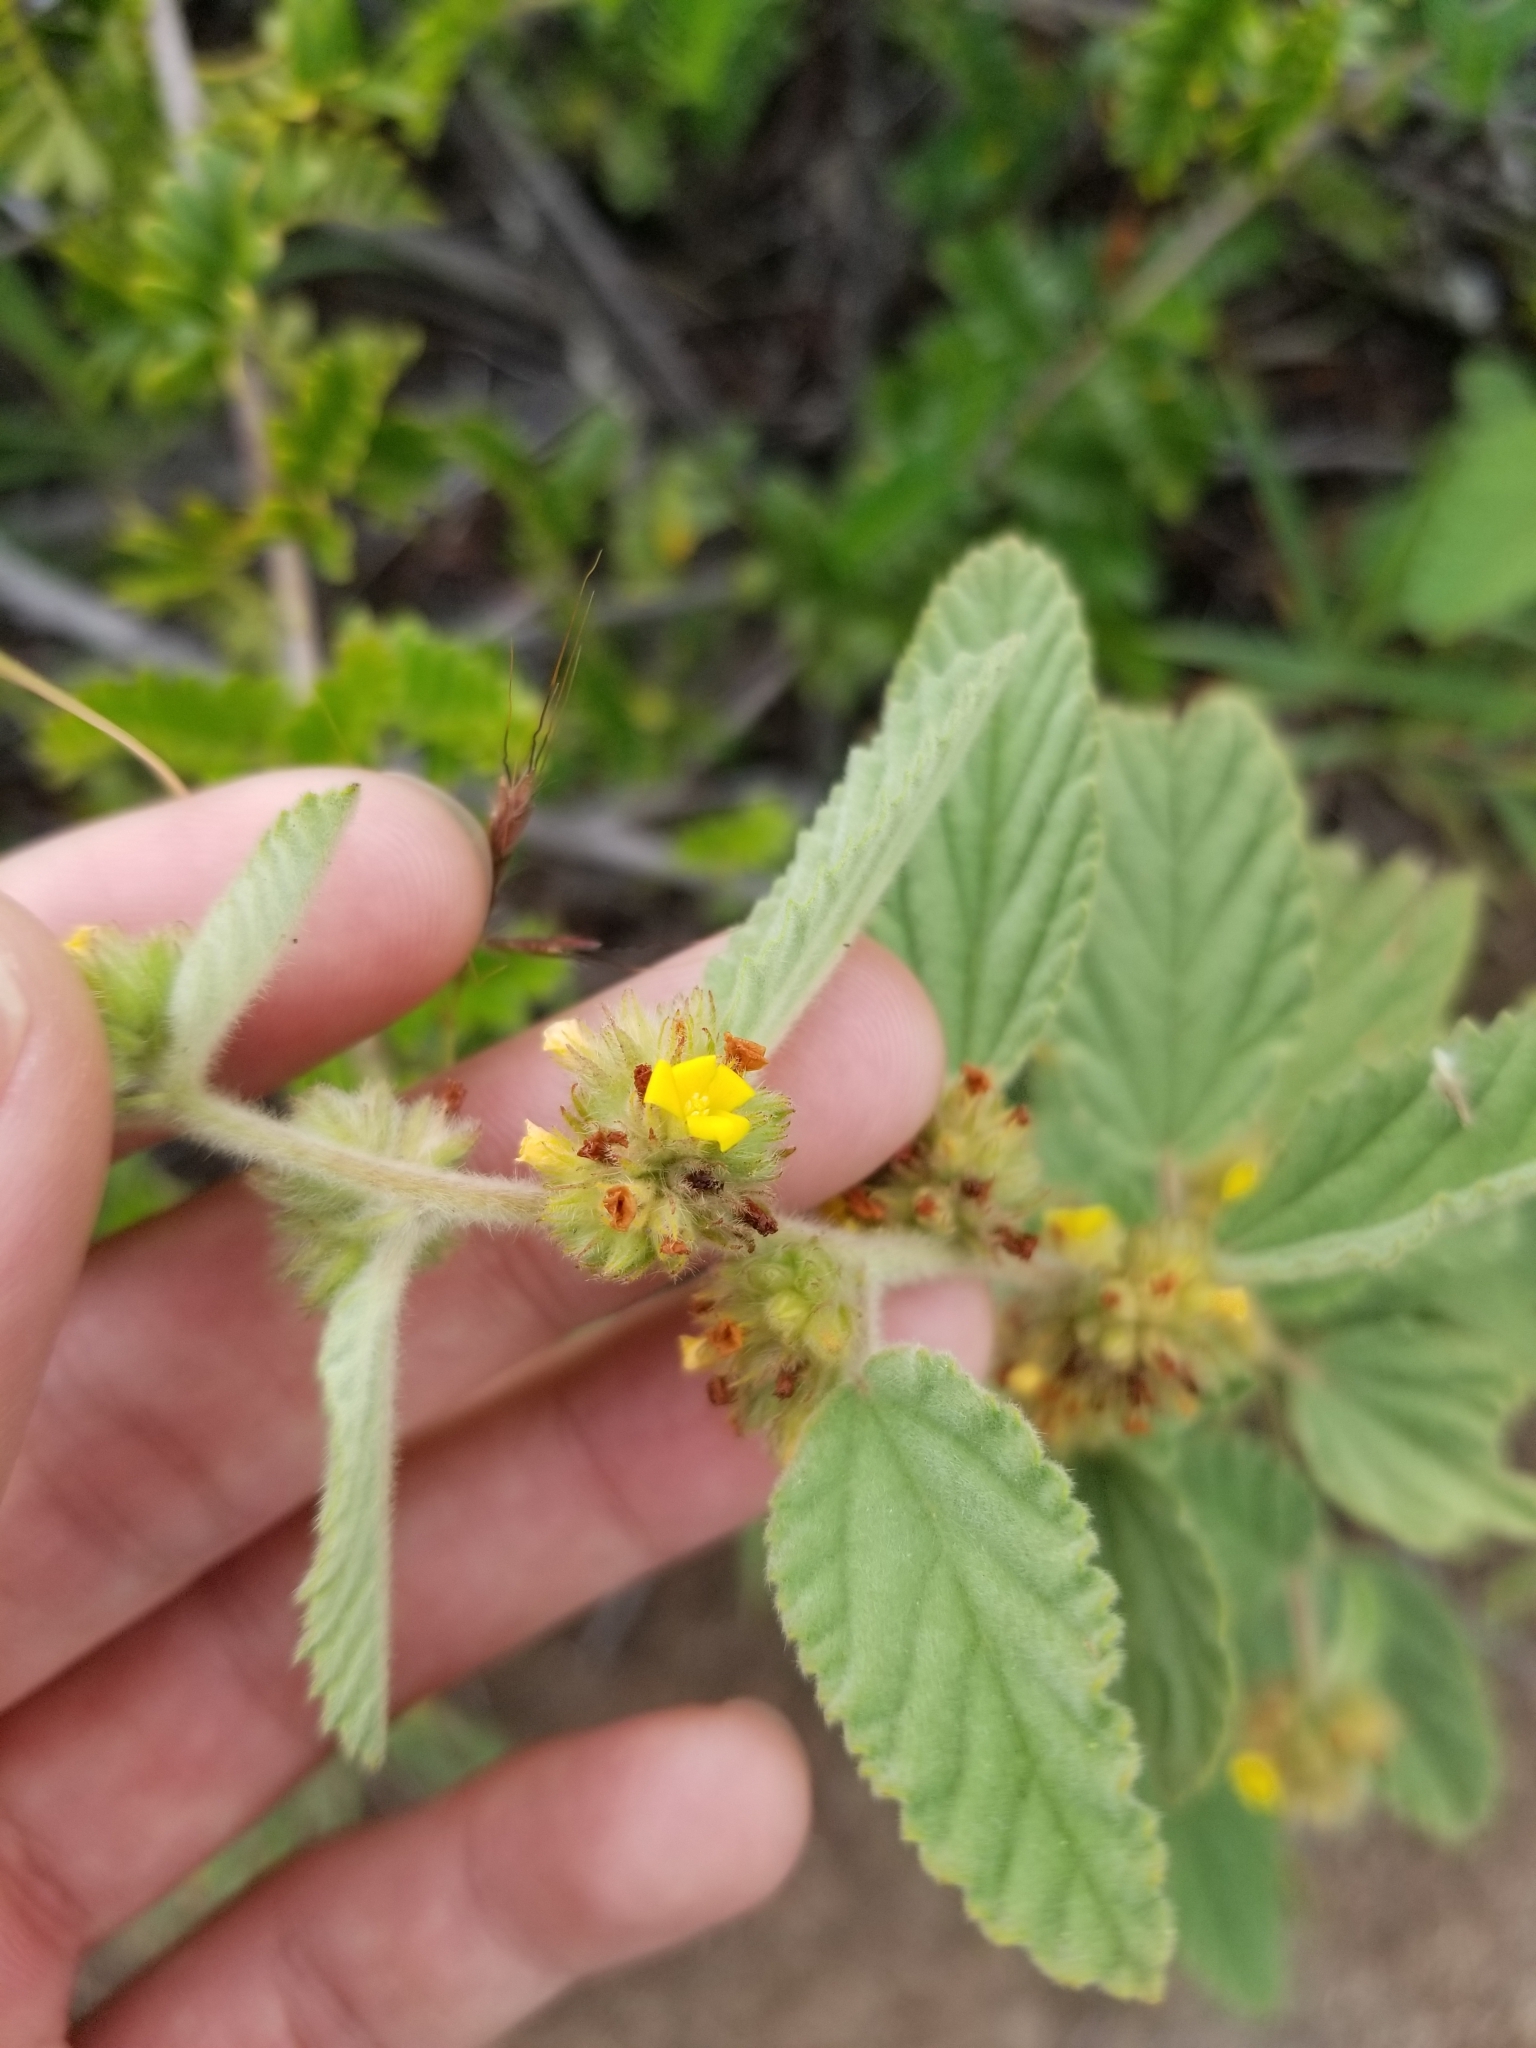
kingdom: Plantae
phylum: Tracheophyta
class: Magnoliopsida
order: Malvales
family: Malvaceae
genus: Waltheria
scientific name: Waltheria indica
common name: Leather-coat
